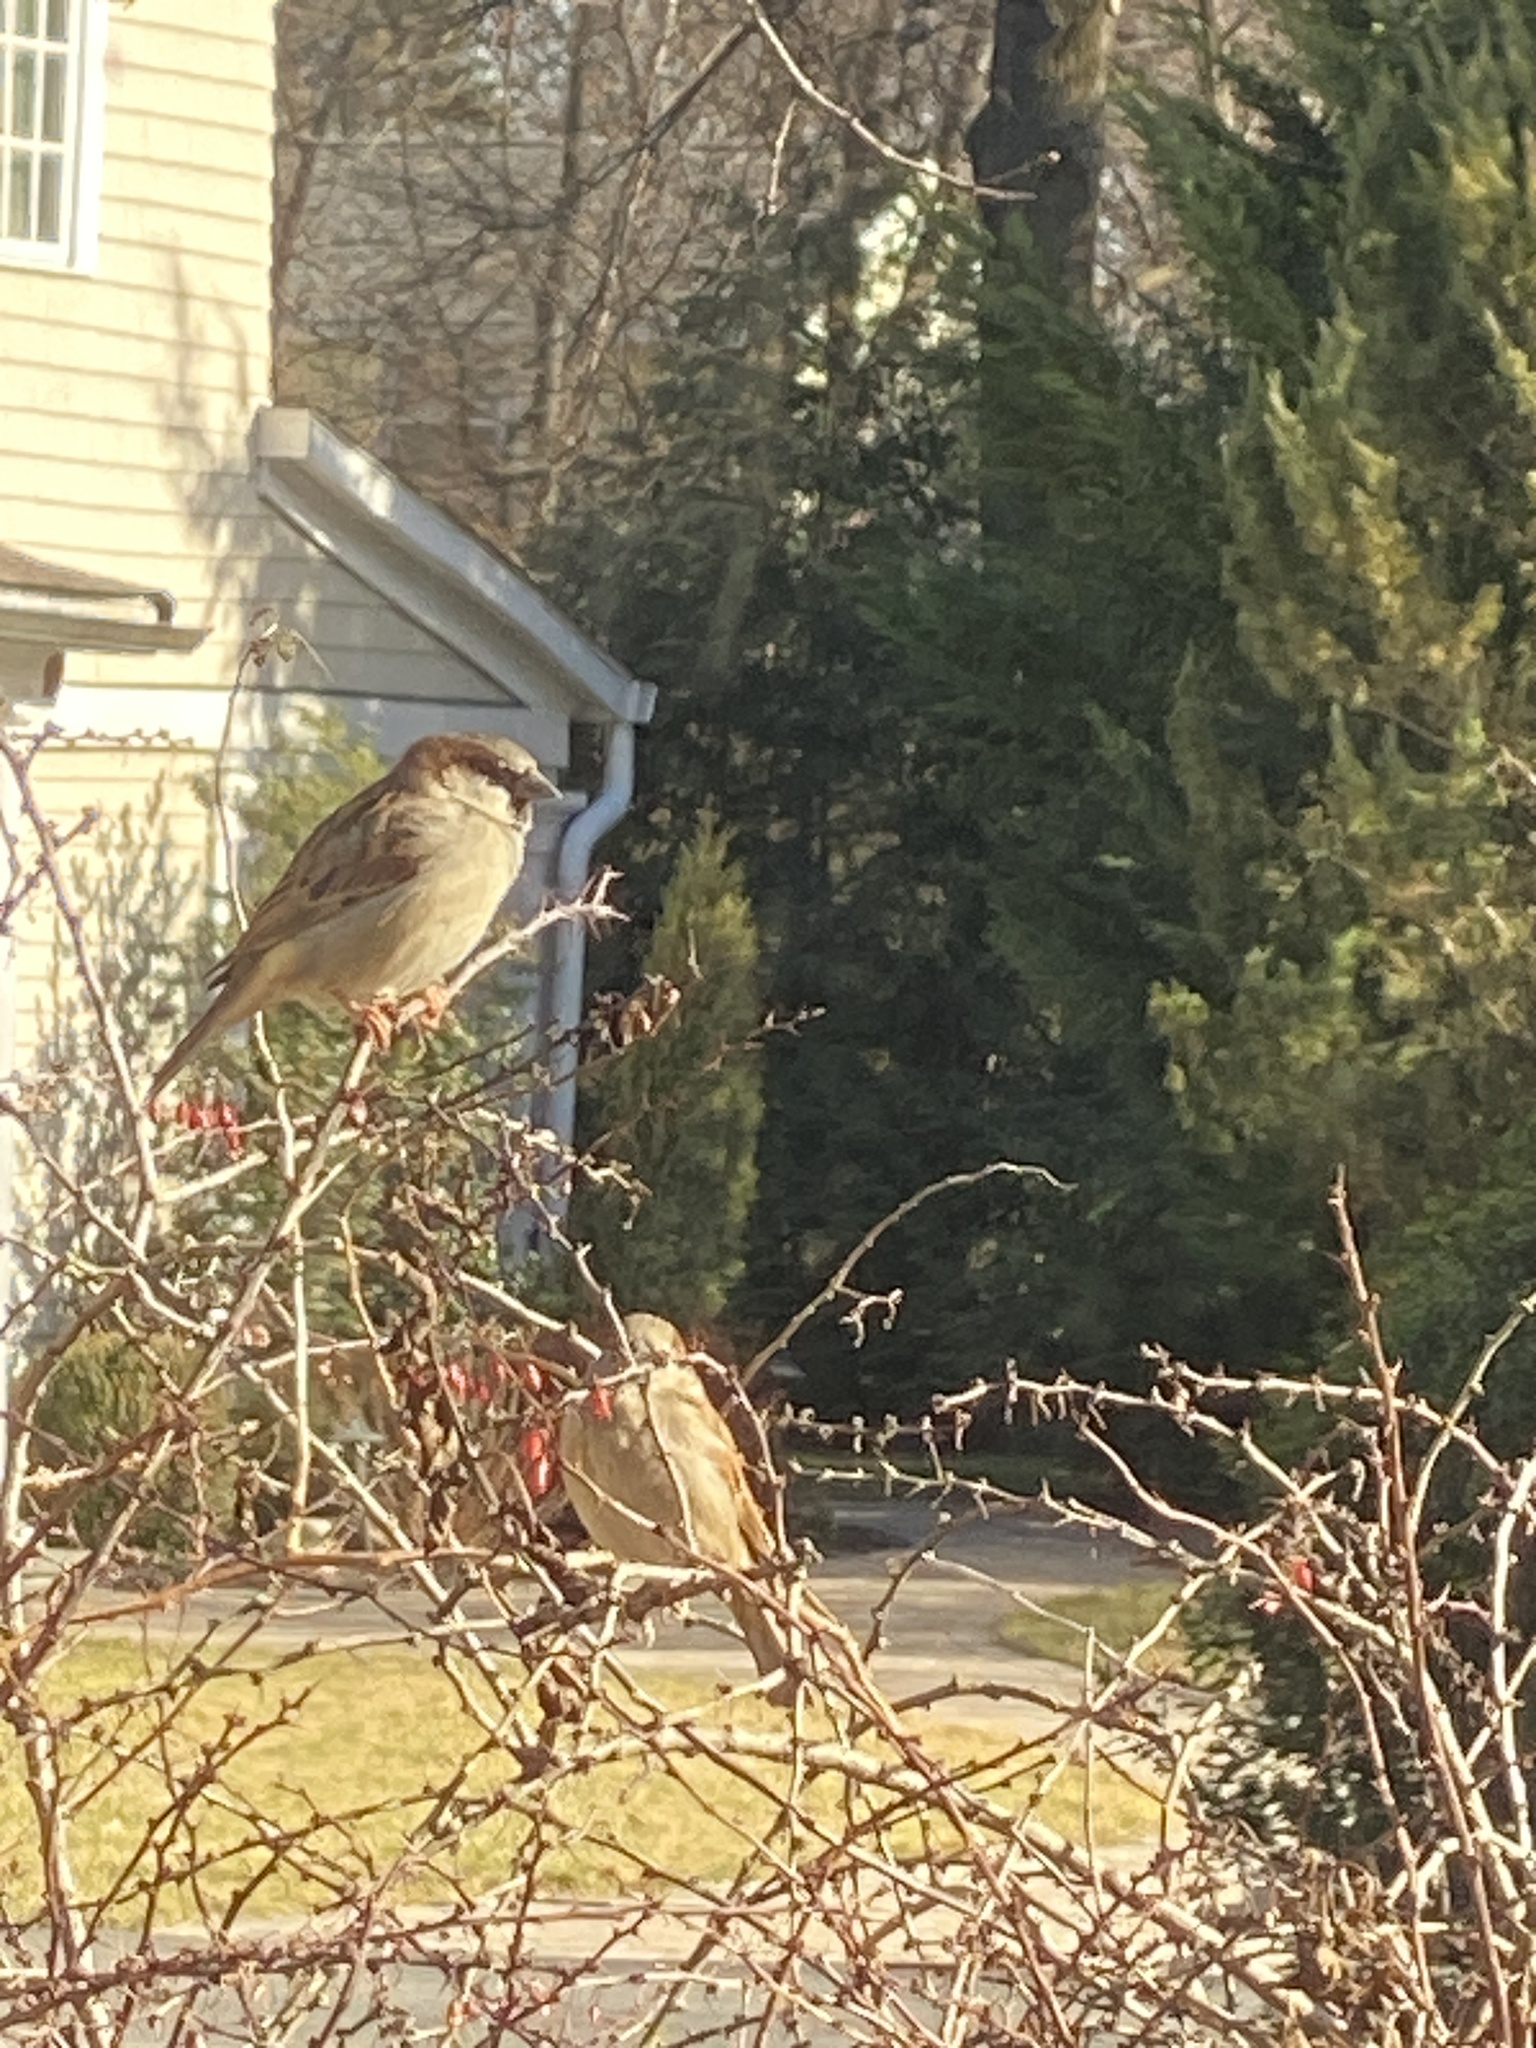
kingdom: Animalia
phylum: Chordata
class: Aves
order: Passeriformes
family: Passeridae
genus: Passer
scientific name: Passer domesticus
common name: House sparrow
